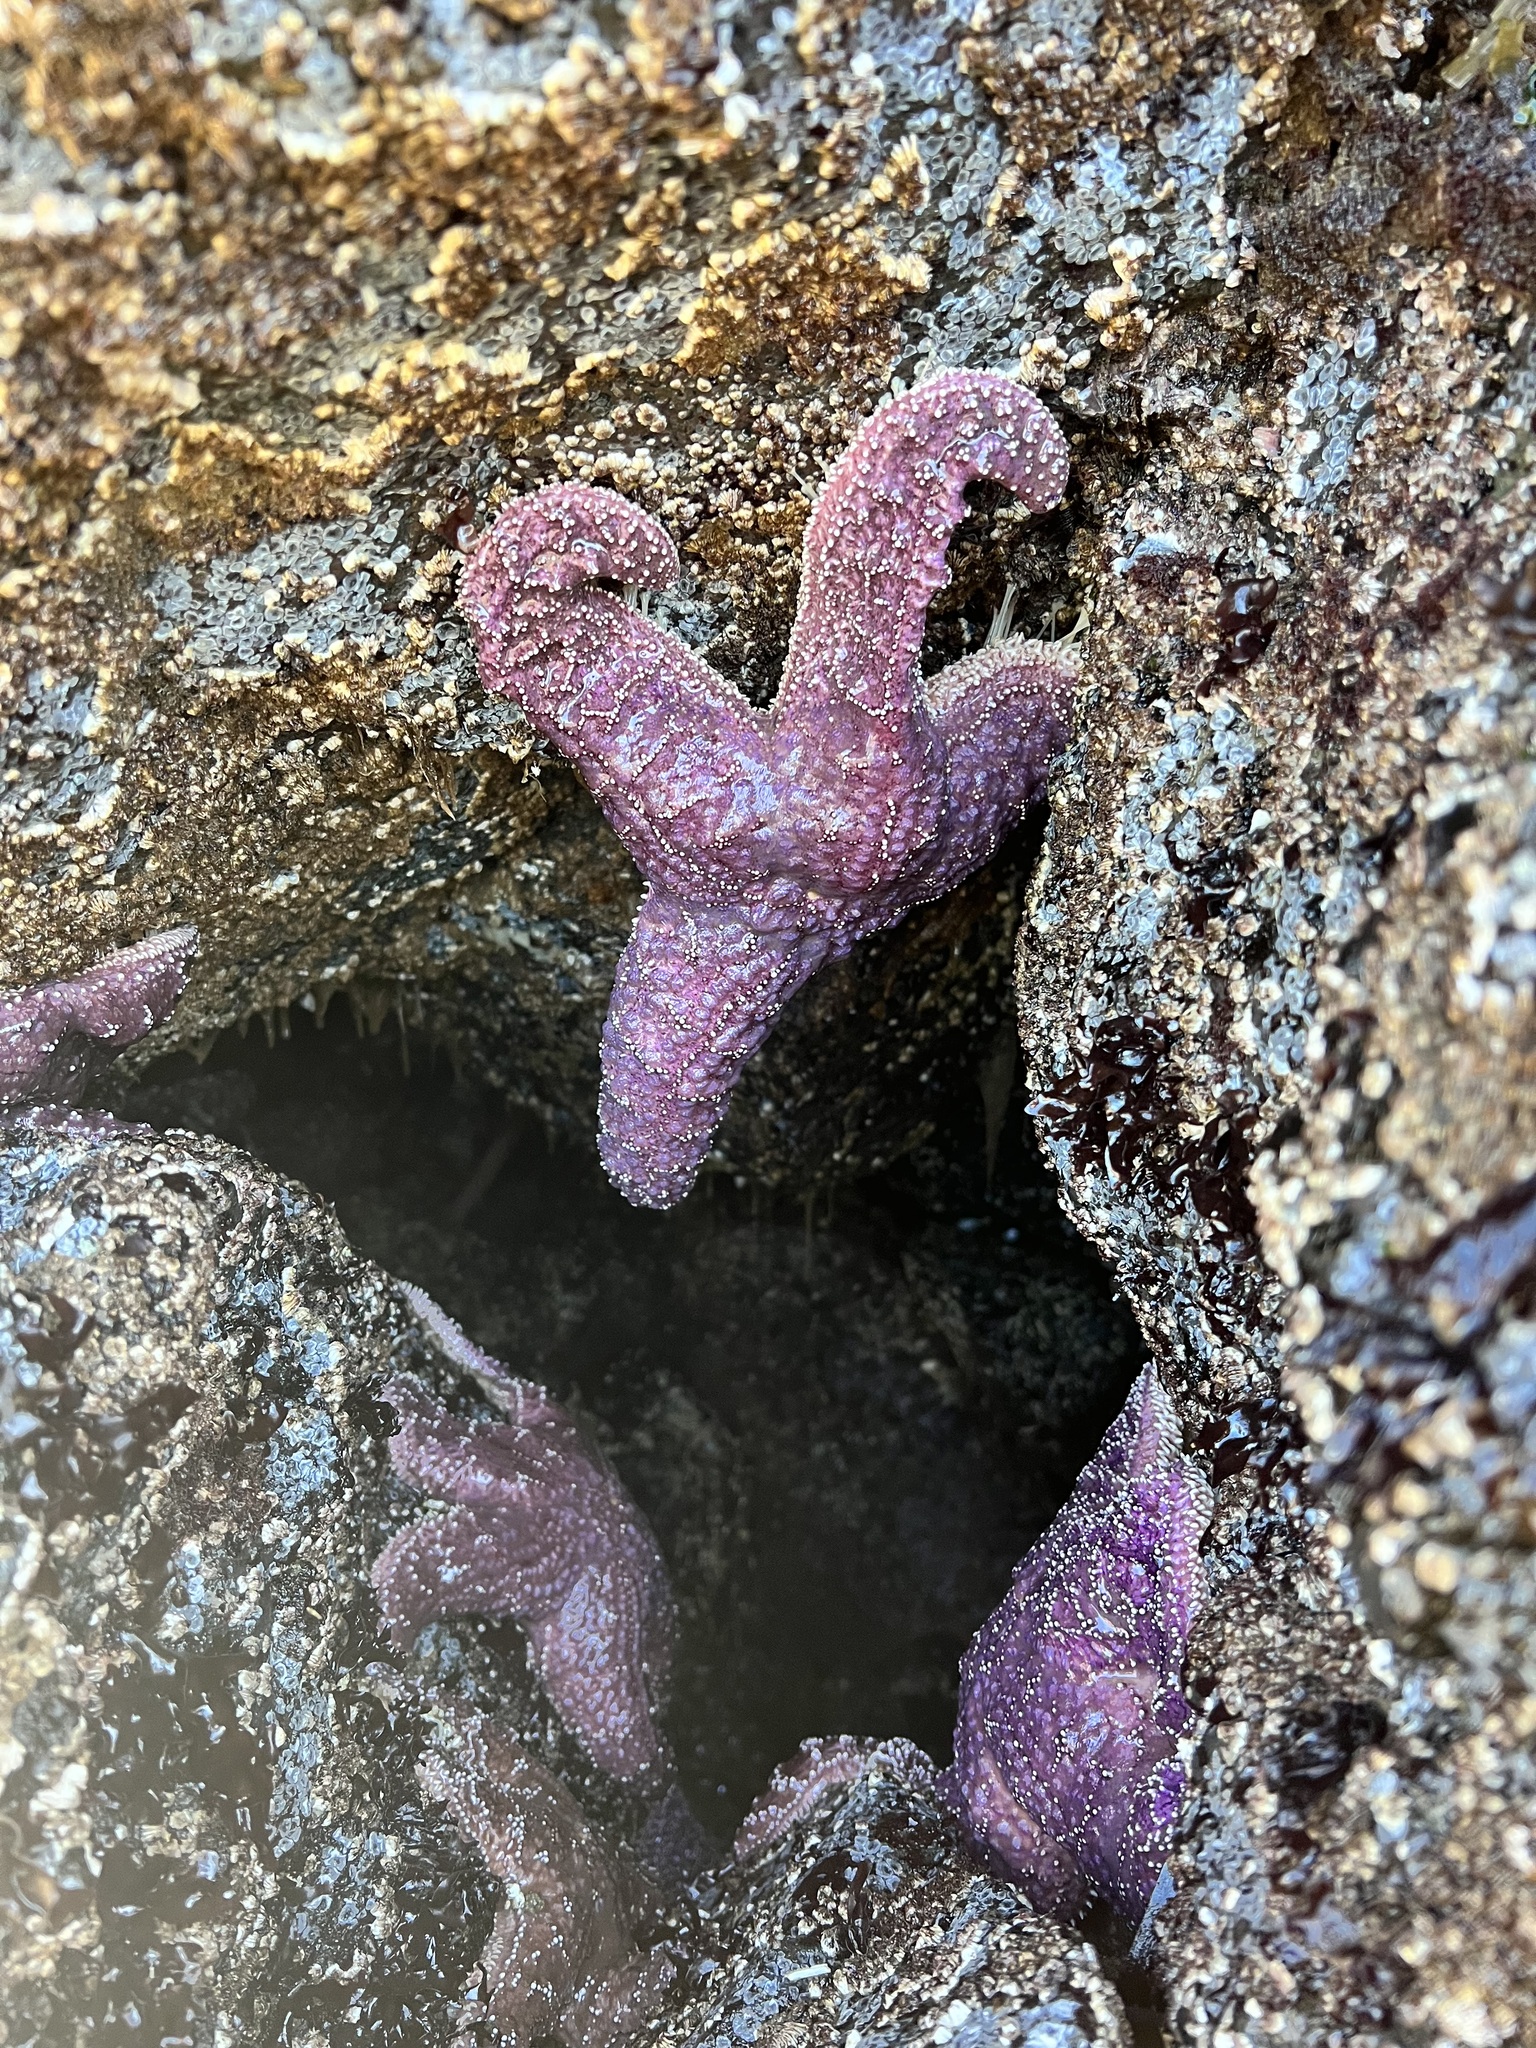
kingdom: Animalia
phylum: Echinodermata
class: Asteroidea
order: Forcipulatida
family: Asteriidae
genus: Pisaster
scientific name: Pisaster ochraceus
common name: Ochre stars
